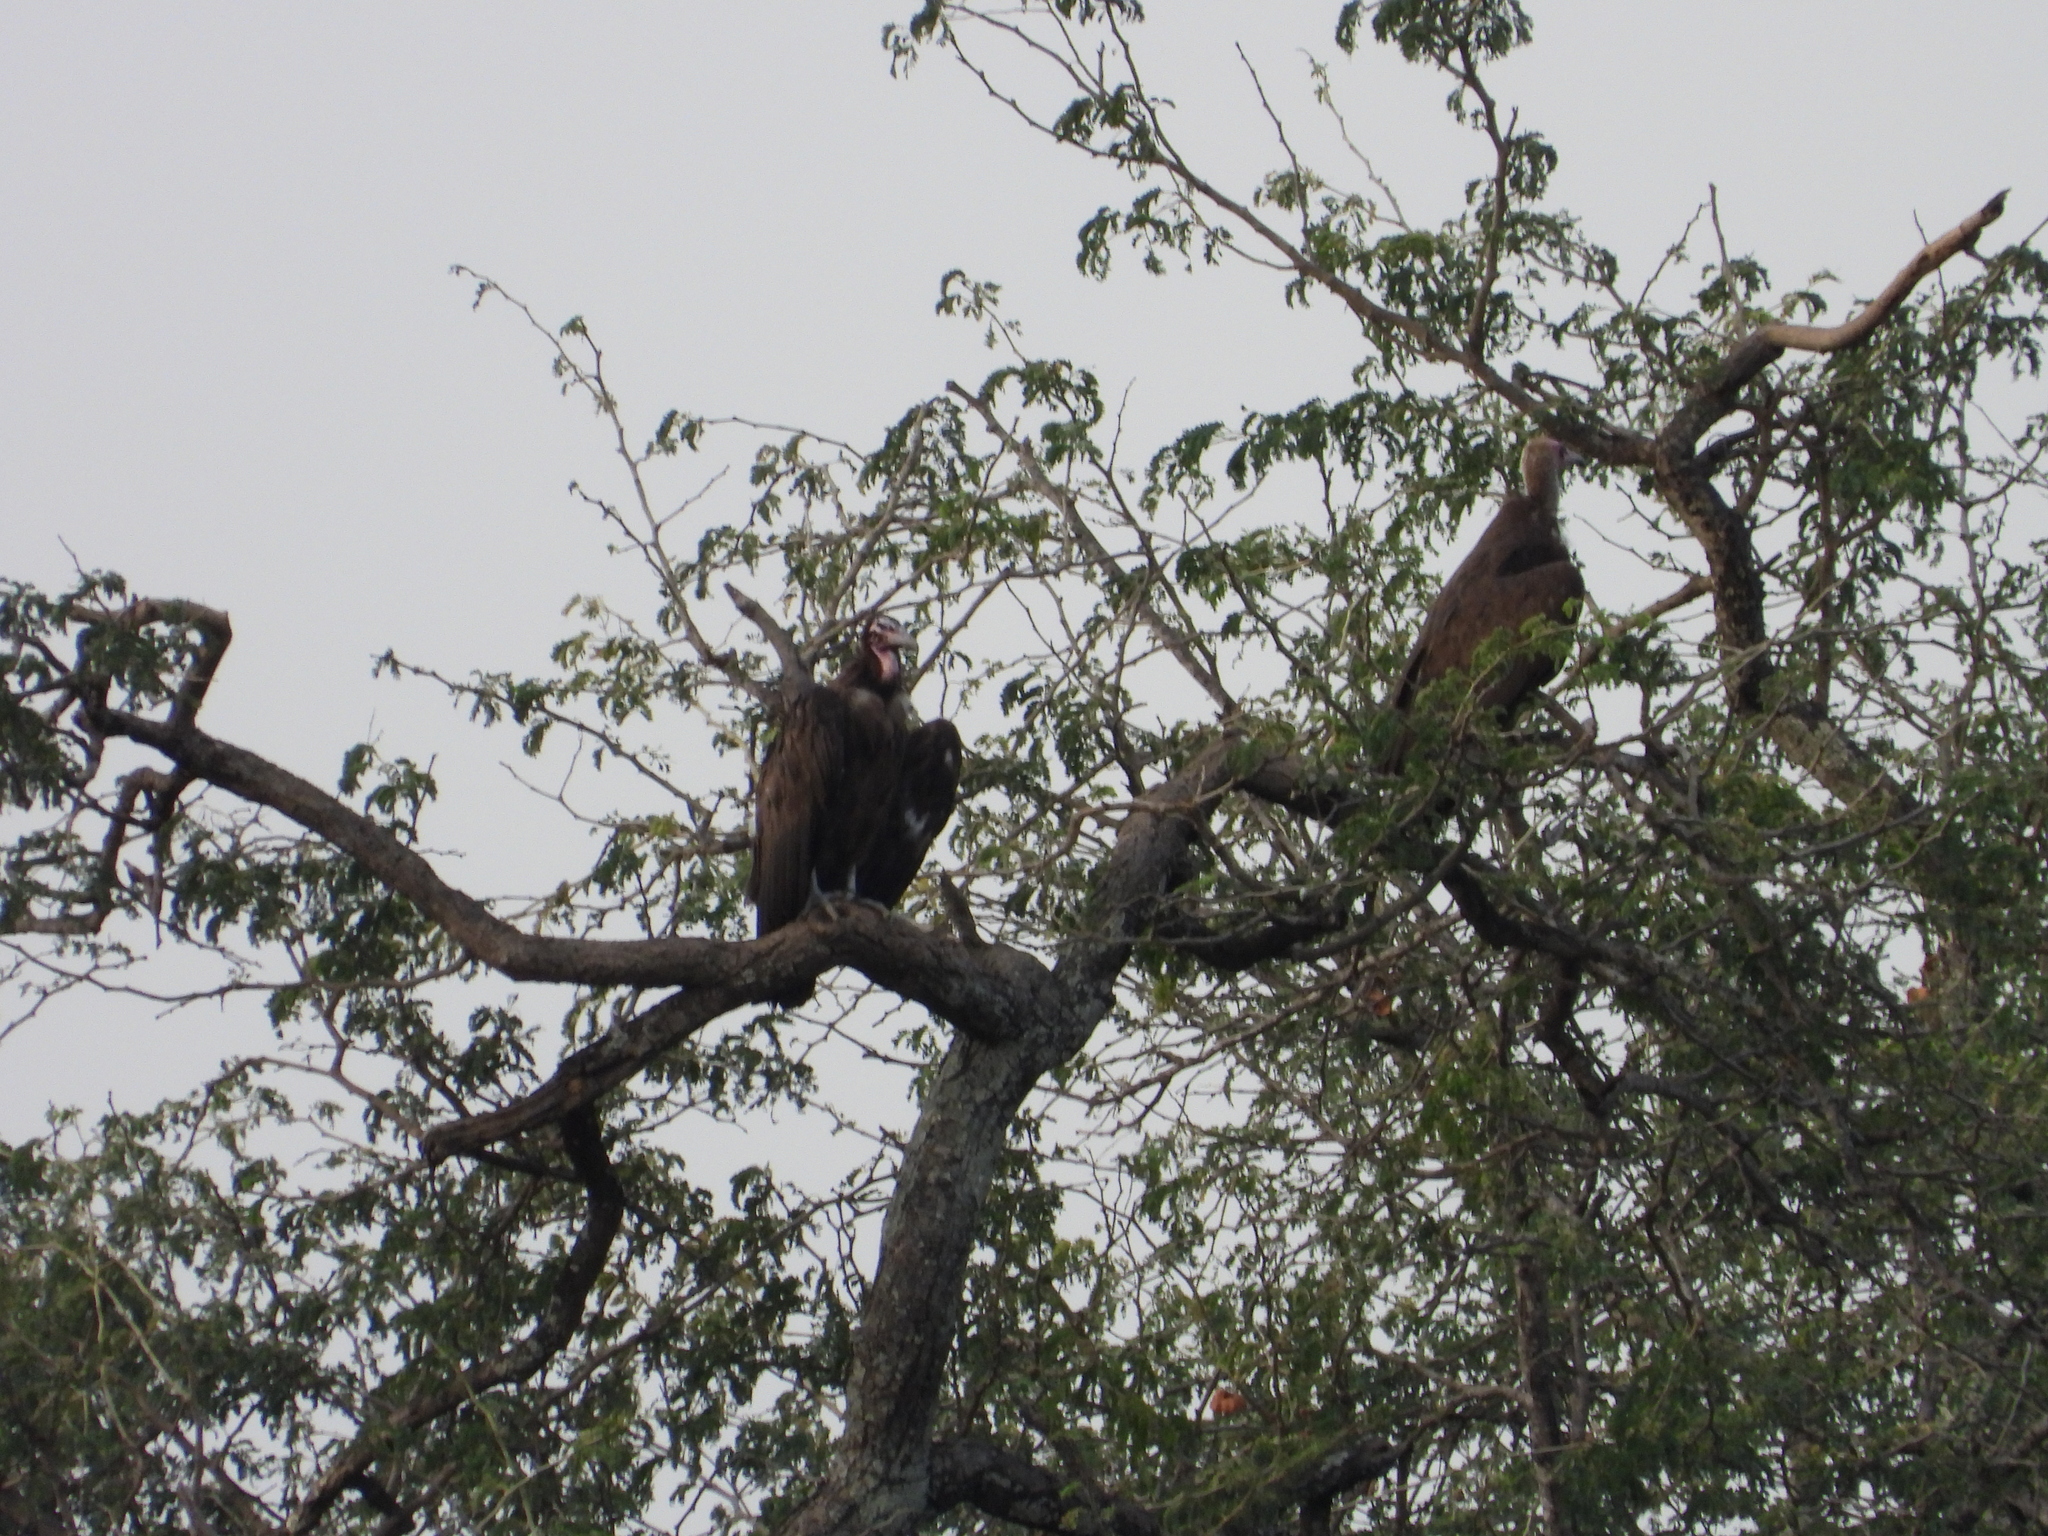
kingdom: Animalia
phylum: Chordata
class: Aves
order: Accipitriformes
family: Accipitridae
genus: Necrosyrtes
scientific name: Necrosyrtes monachus
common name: Hooded vulture
